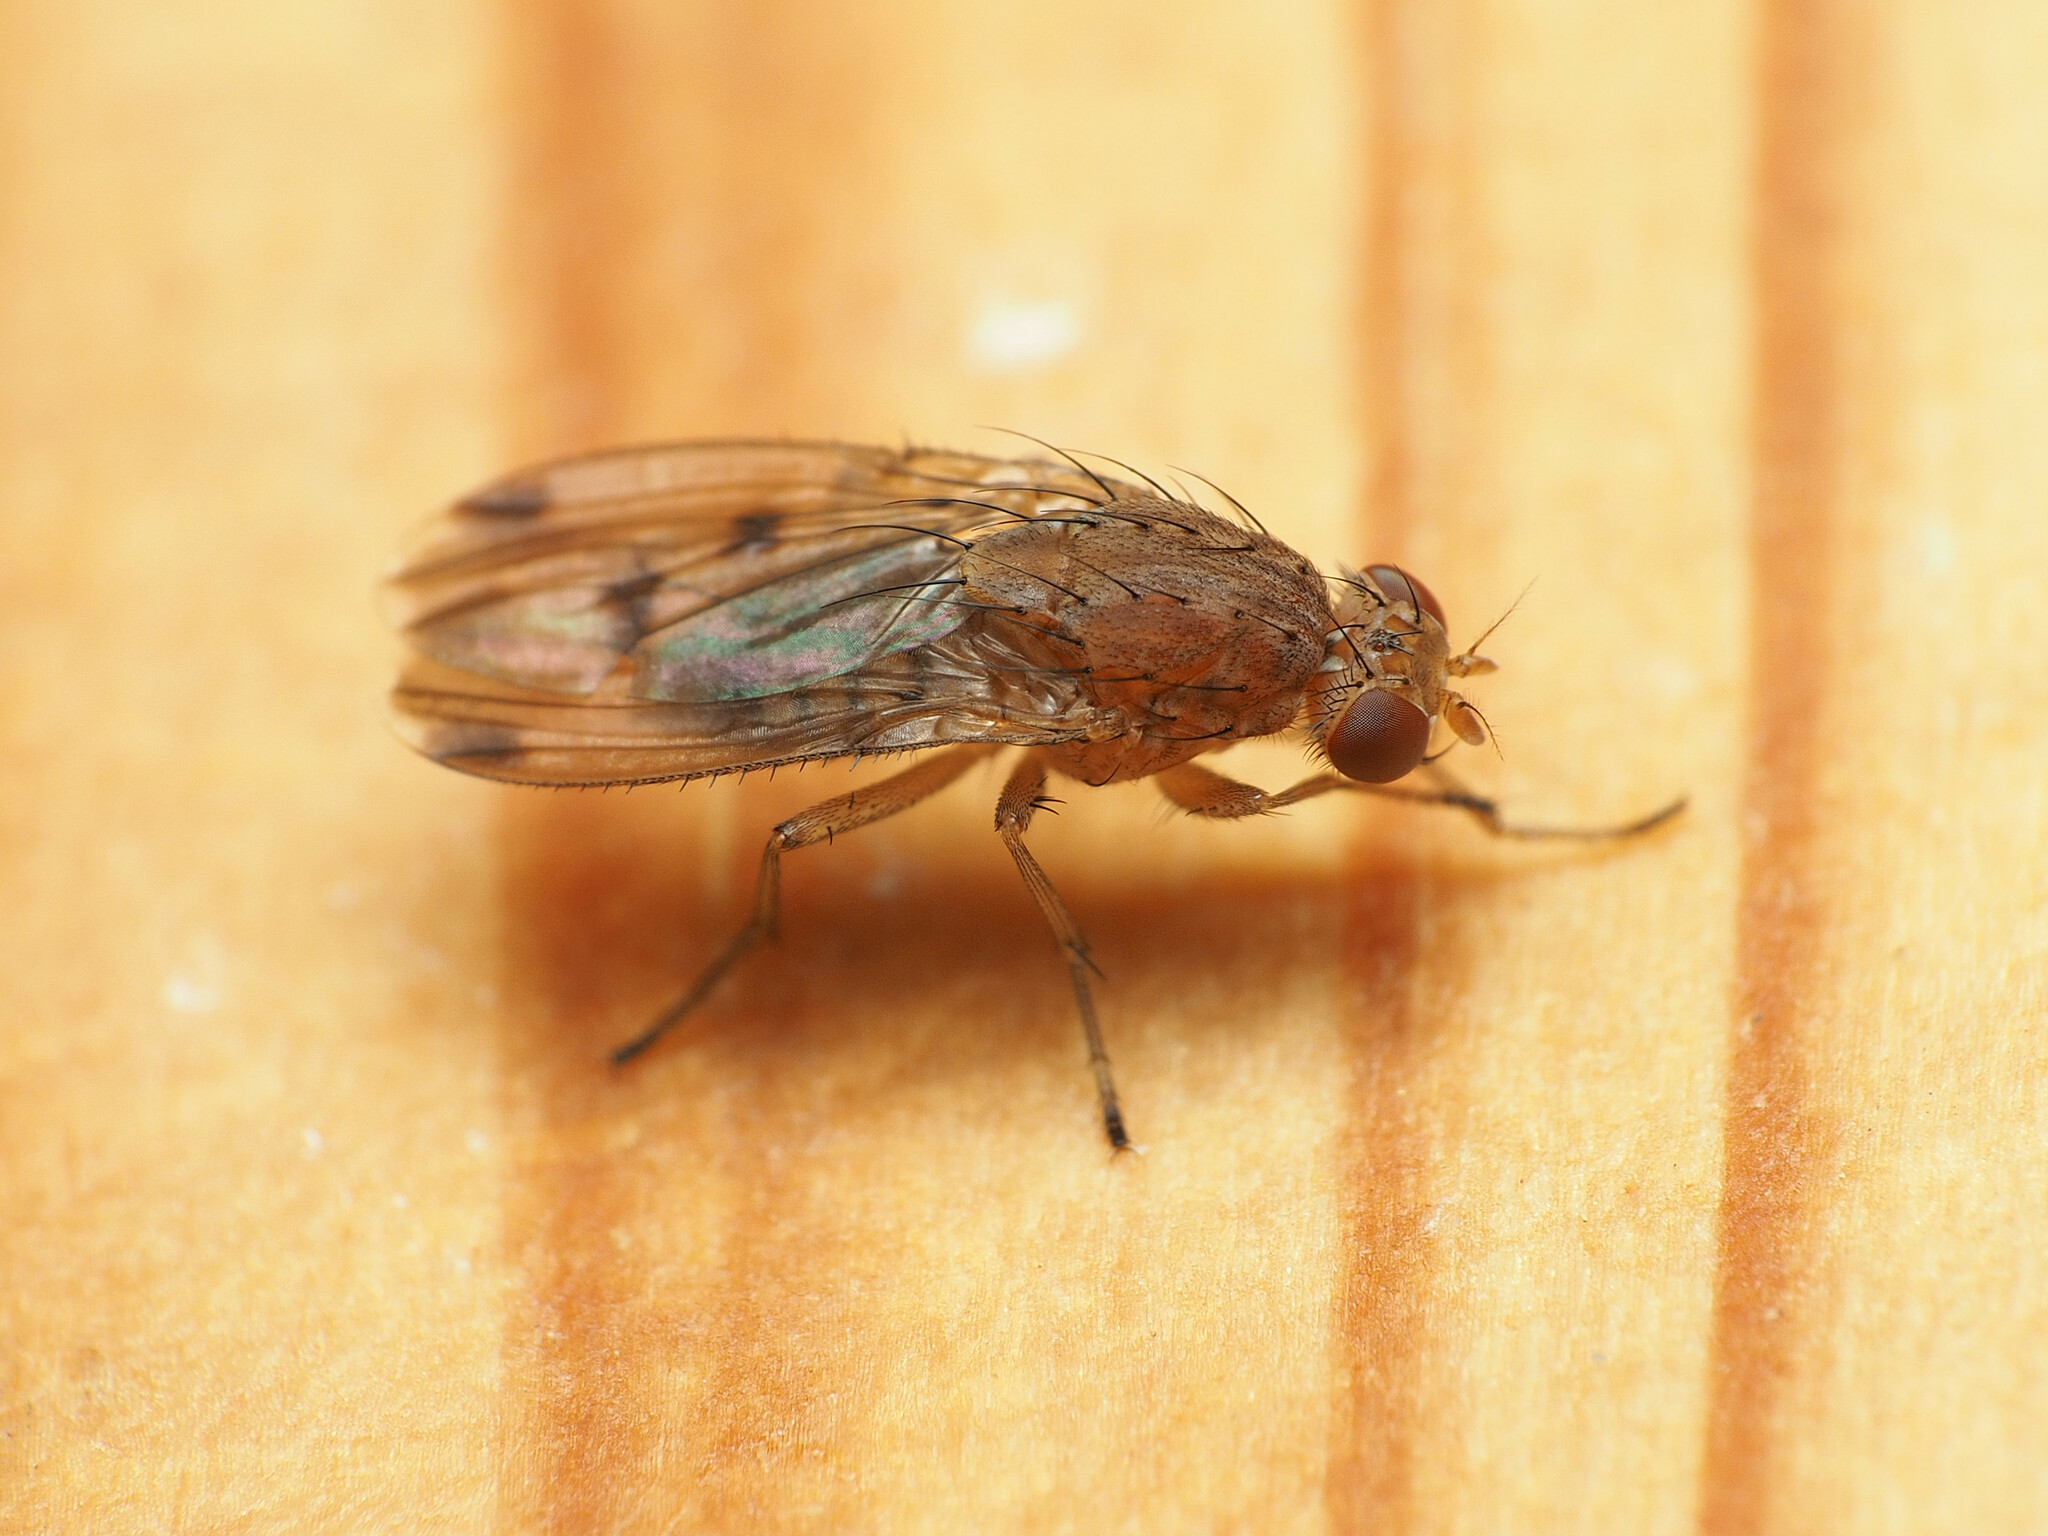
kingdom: Animalia
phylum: Arthropoda
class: Insecta
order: Diptera
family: Heleomyzidae
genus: Suillia
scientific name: Suillia variegata
